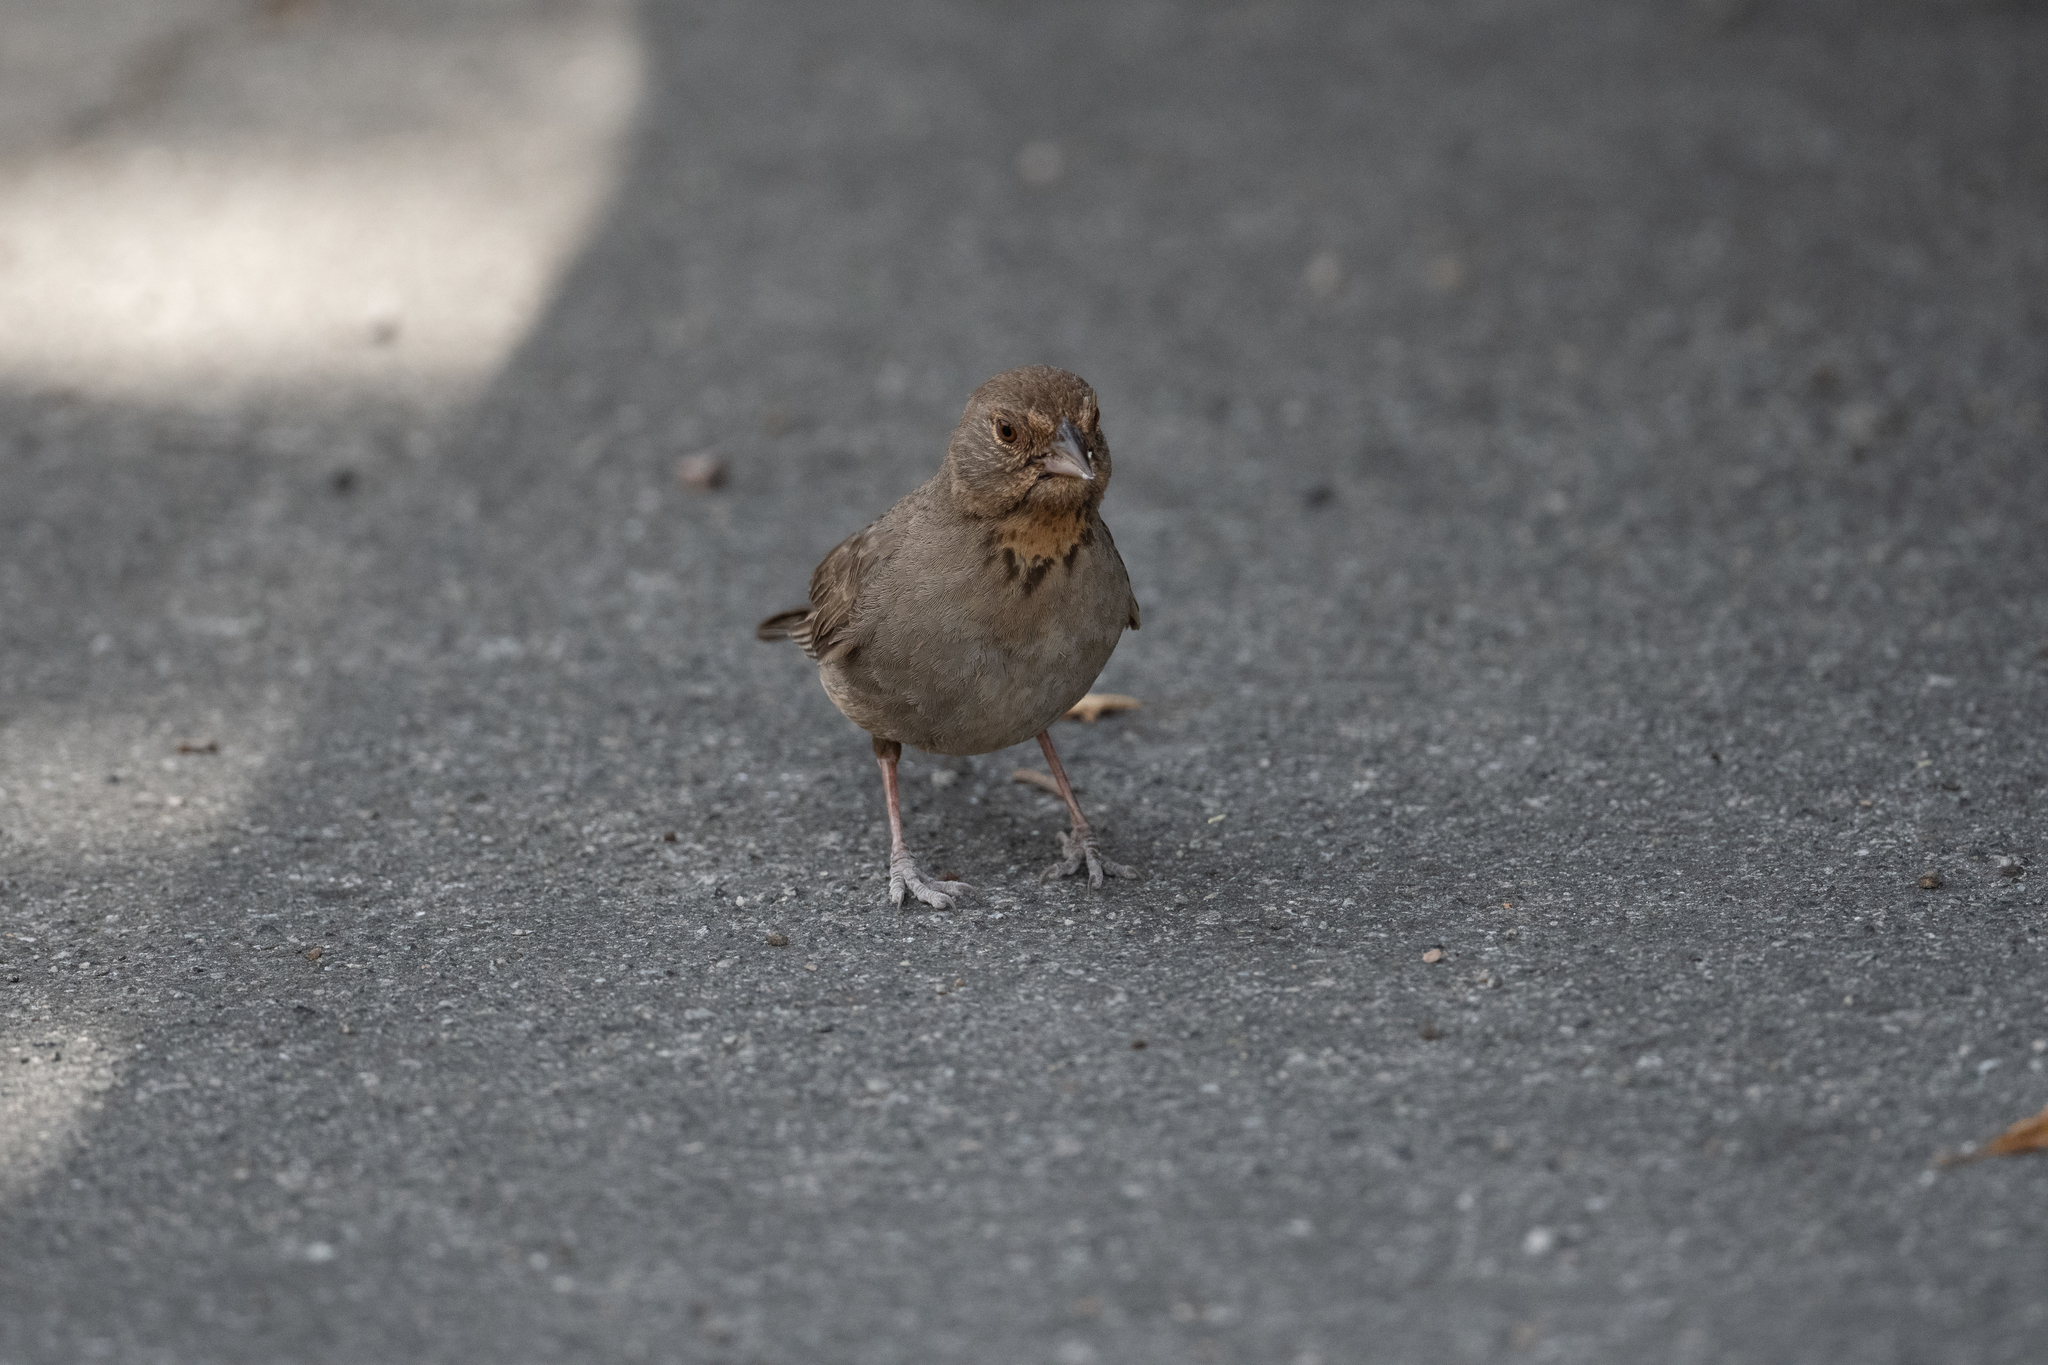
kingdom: Animalia
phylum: Chordata
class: Aves
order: Passeriformes
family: Passerellidae
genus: Melozone
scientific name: Melozone crissalis
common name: California towhee
